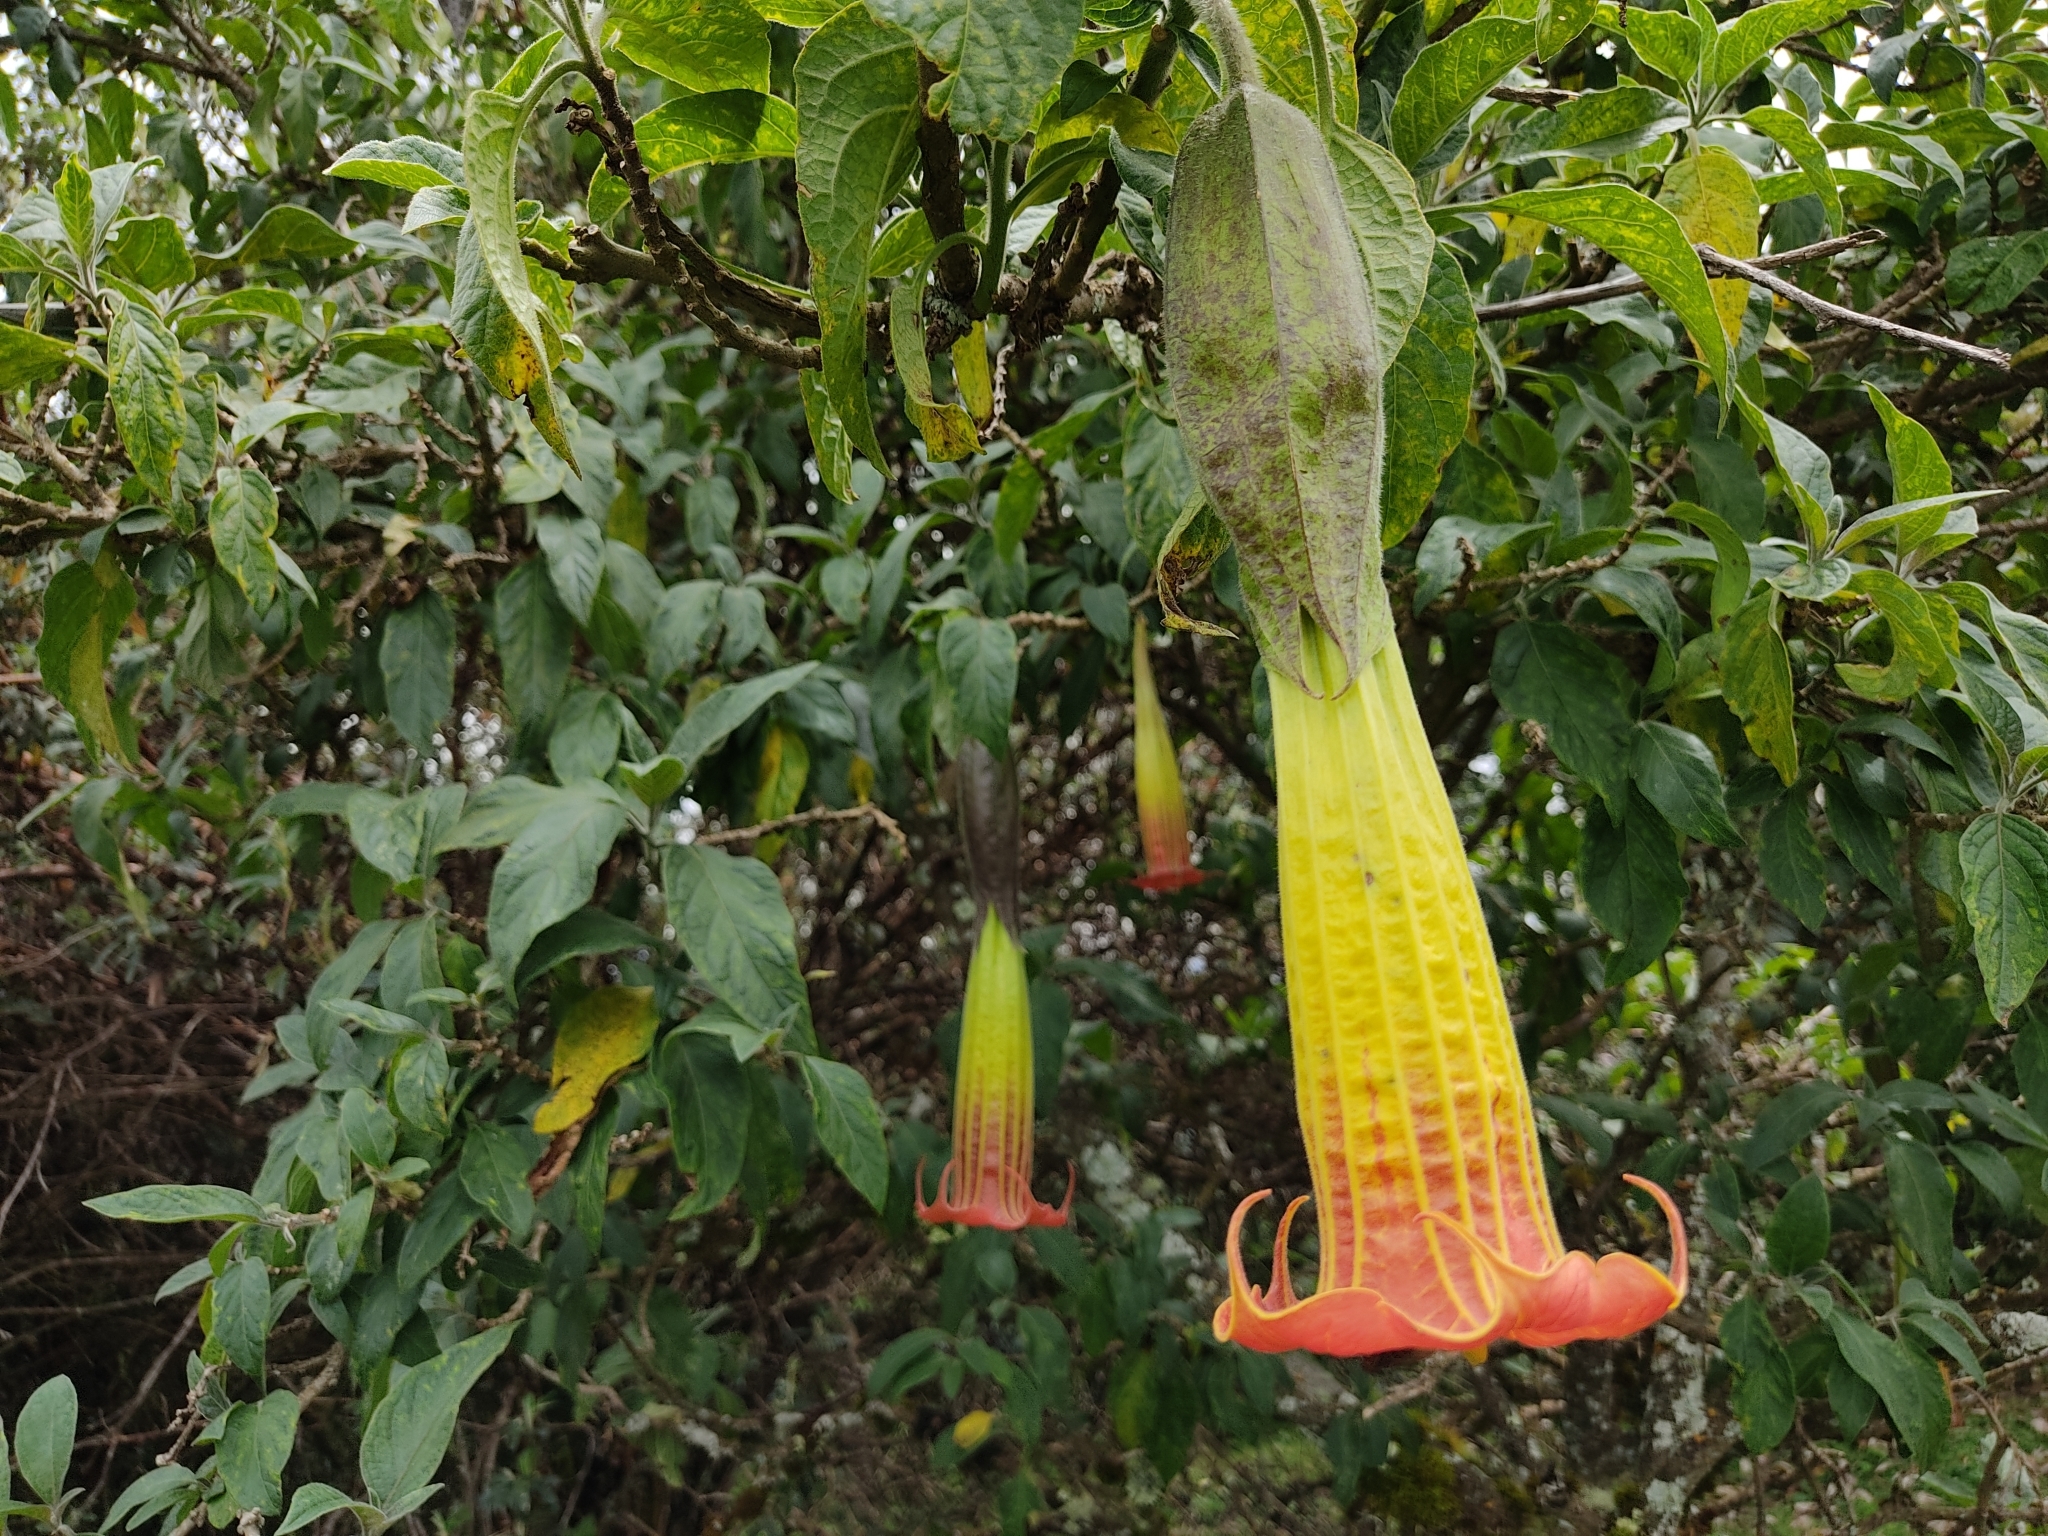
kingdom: Plantae
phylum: Tracheophyta
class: Magnoliopsida
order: Solanales
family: Solanaceae
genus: Brugmansia
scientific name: Brugmansia sanguinea
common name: Red floripontio
